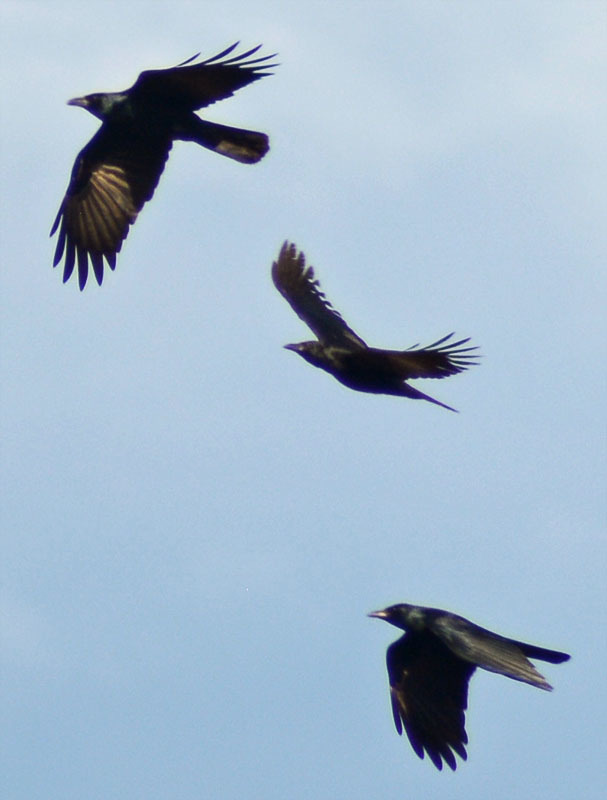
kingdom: Animalia
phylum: Chordata
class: Aves
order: Passeriformes
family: Corvidae
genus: Corvus
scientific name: Corvus sinaloae
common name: Sinaloa crow
